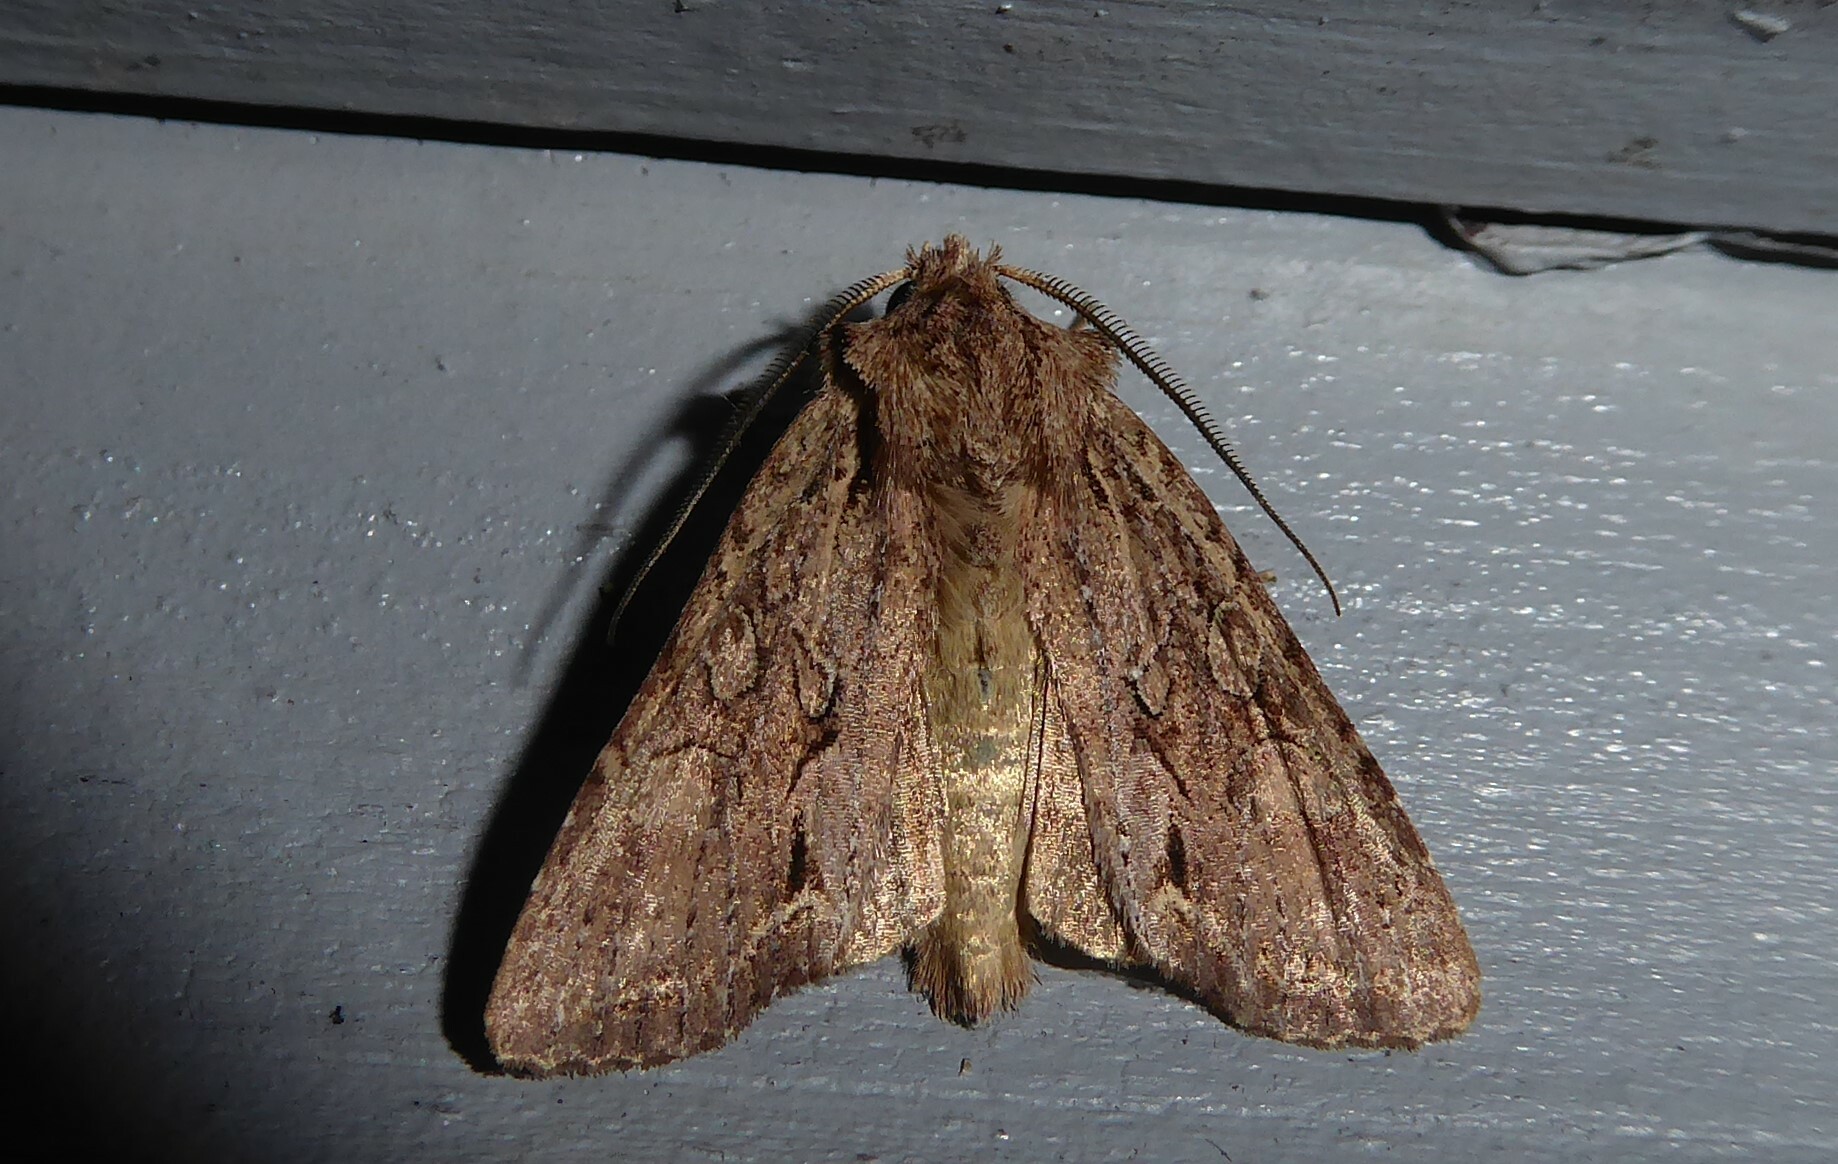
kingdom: Animalia
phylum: Arthropoda
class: Insecta
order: Lepidoptera
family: Noctuidae
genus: Ichneutica
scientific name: Ichneutica
